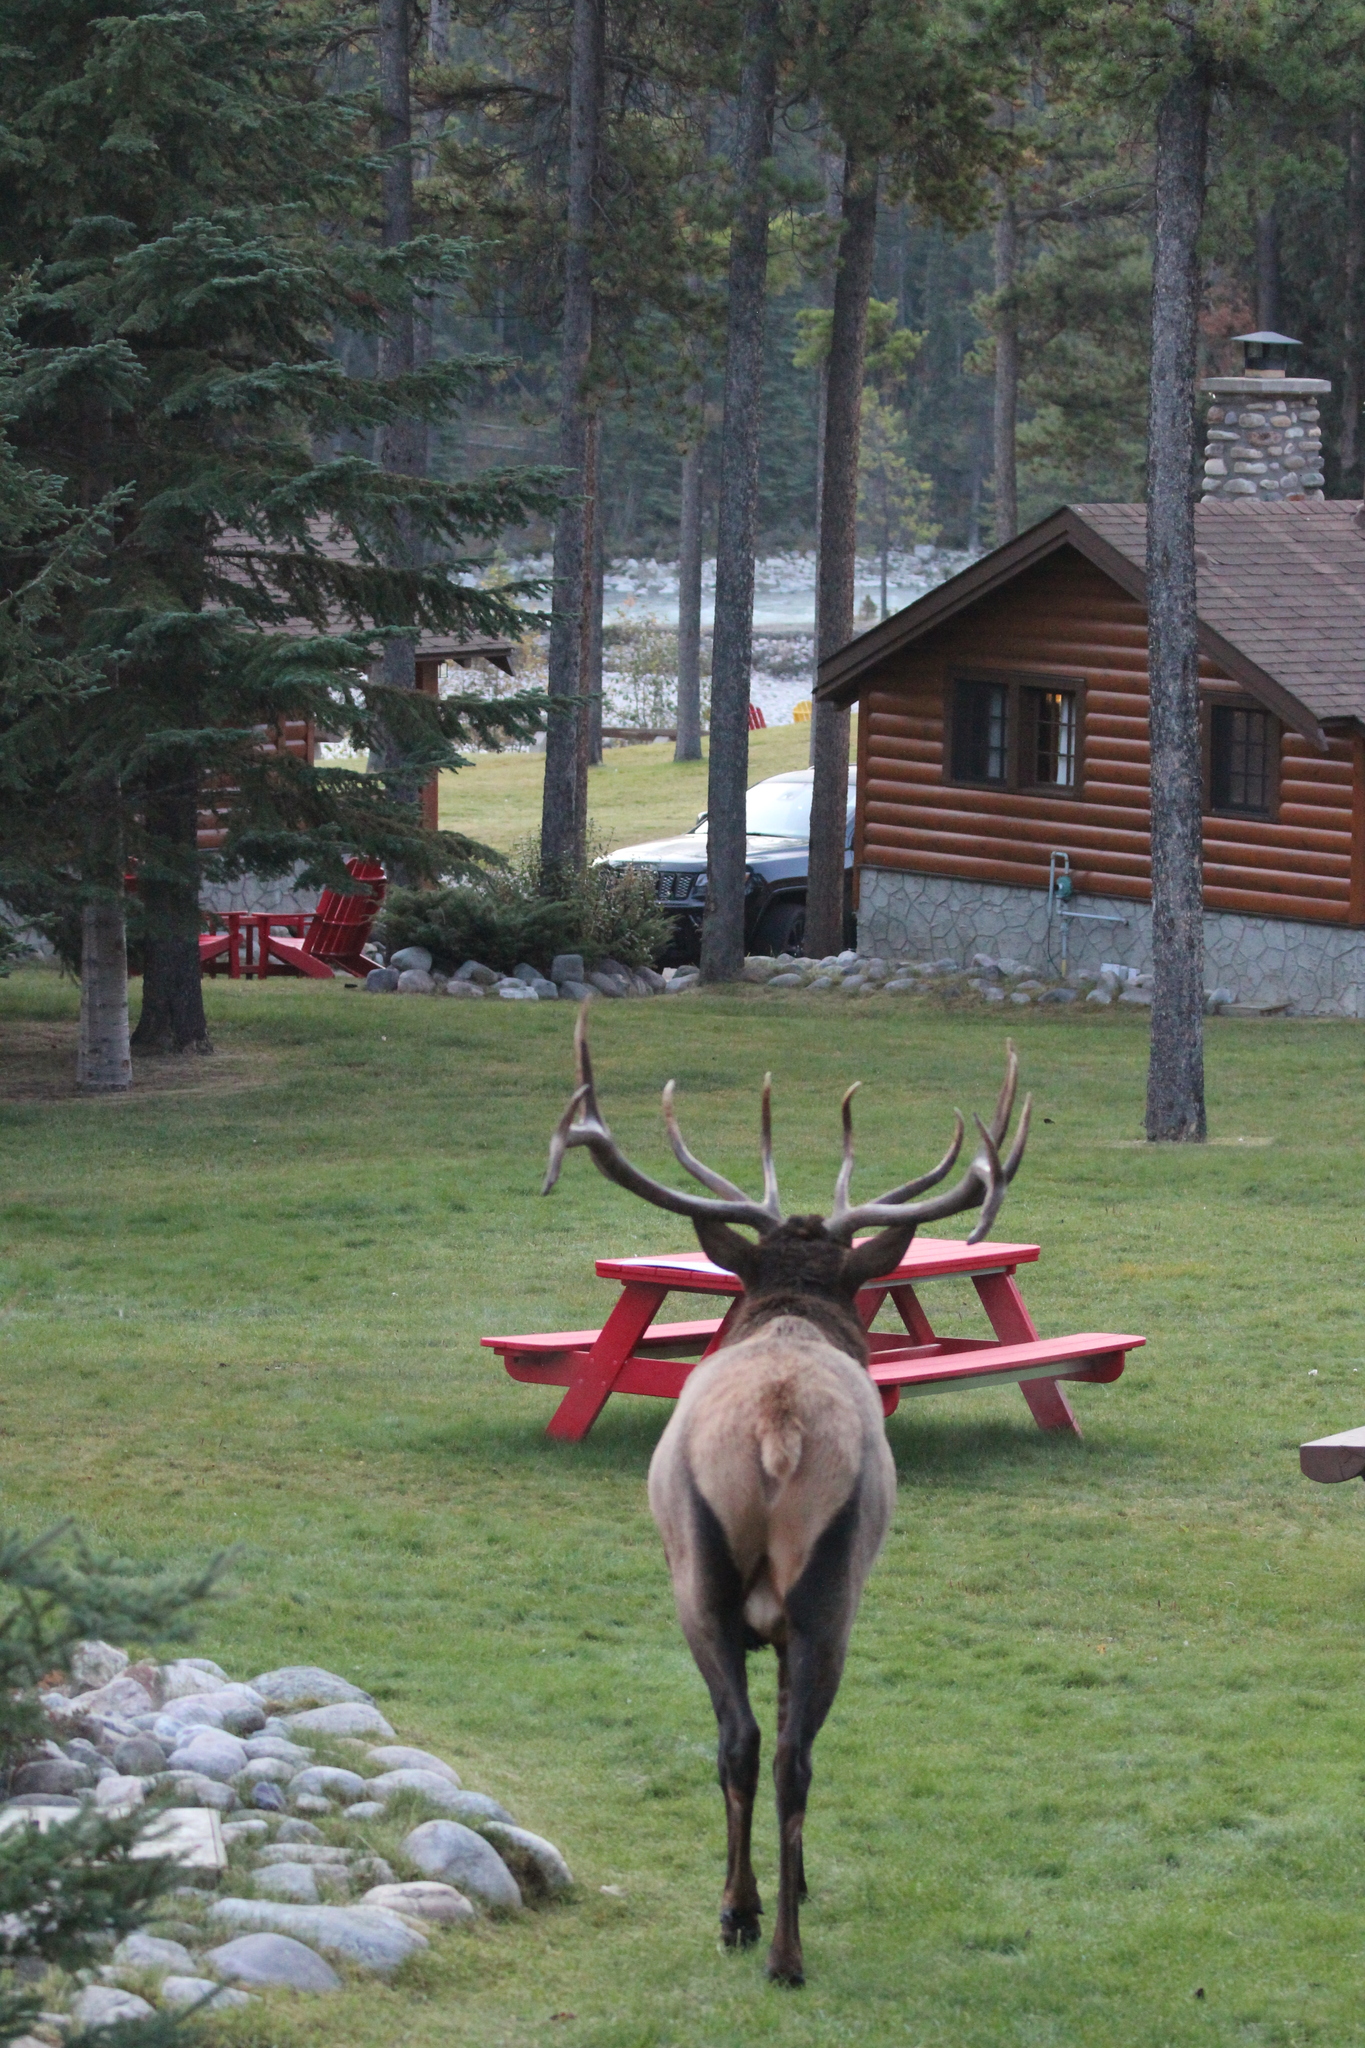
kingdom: Animalia
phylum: Chordata
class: Mammalia
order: Artiodactyla
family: Cervidae
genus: Cervus
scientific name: Cervus elaphus
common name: Red deer
